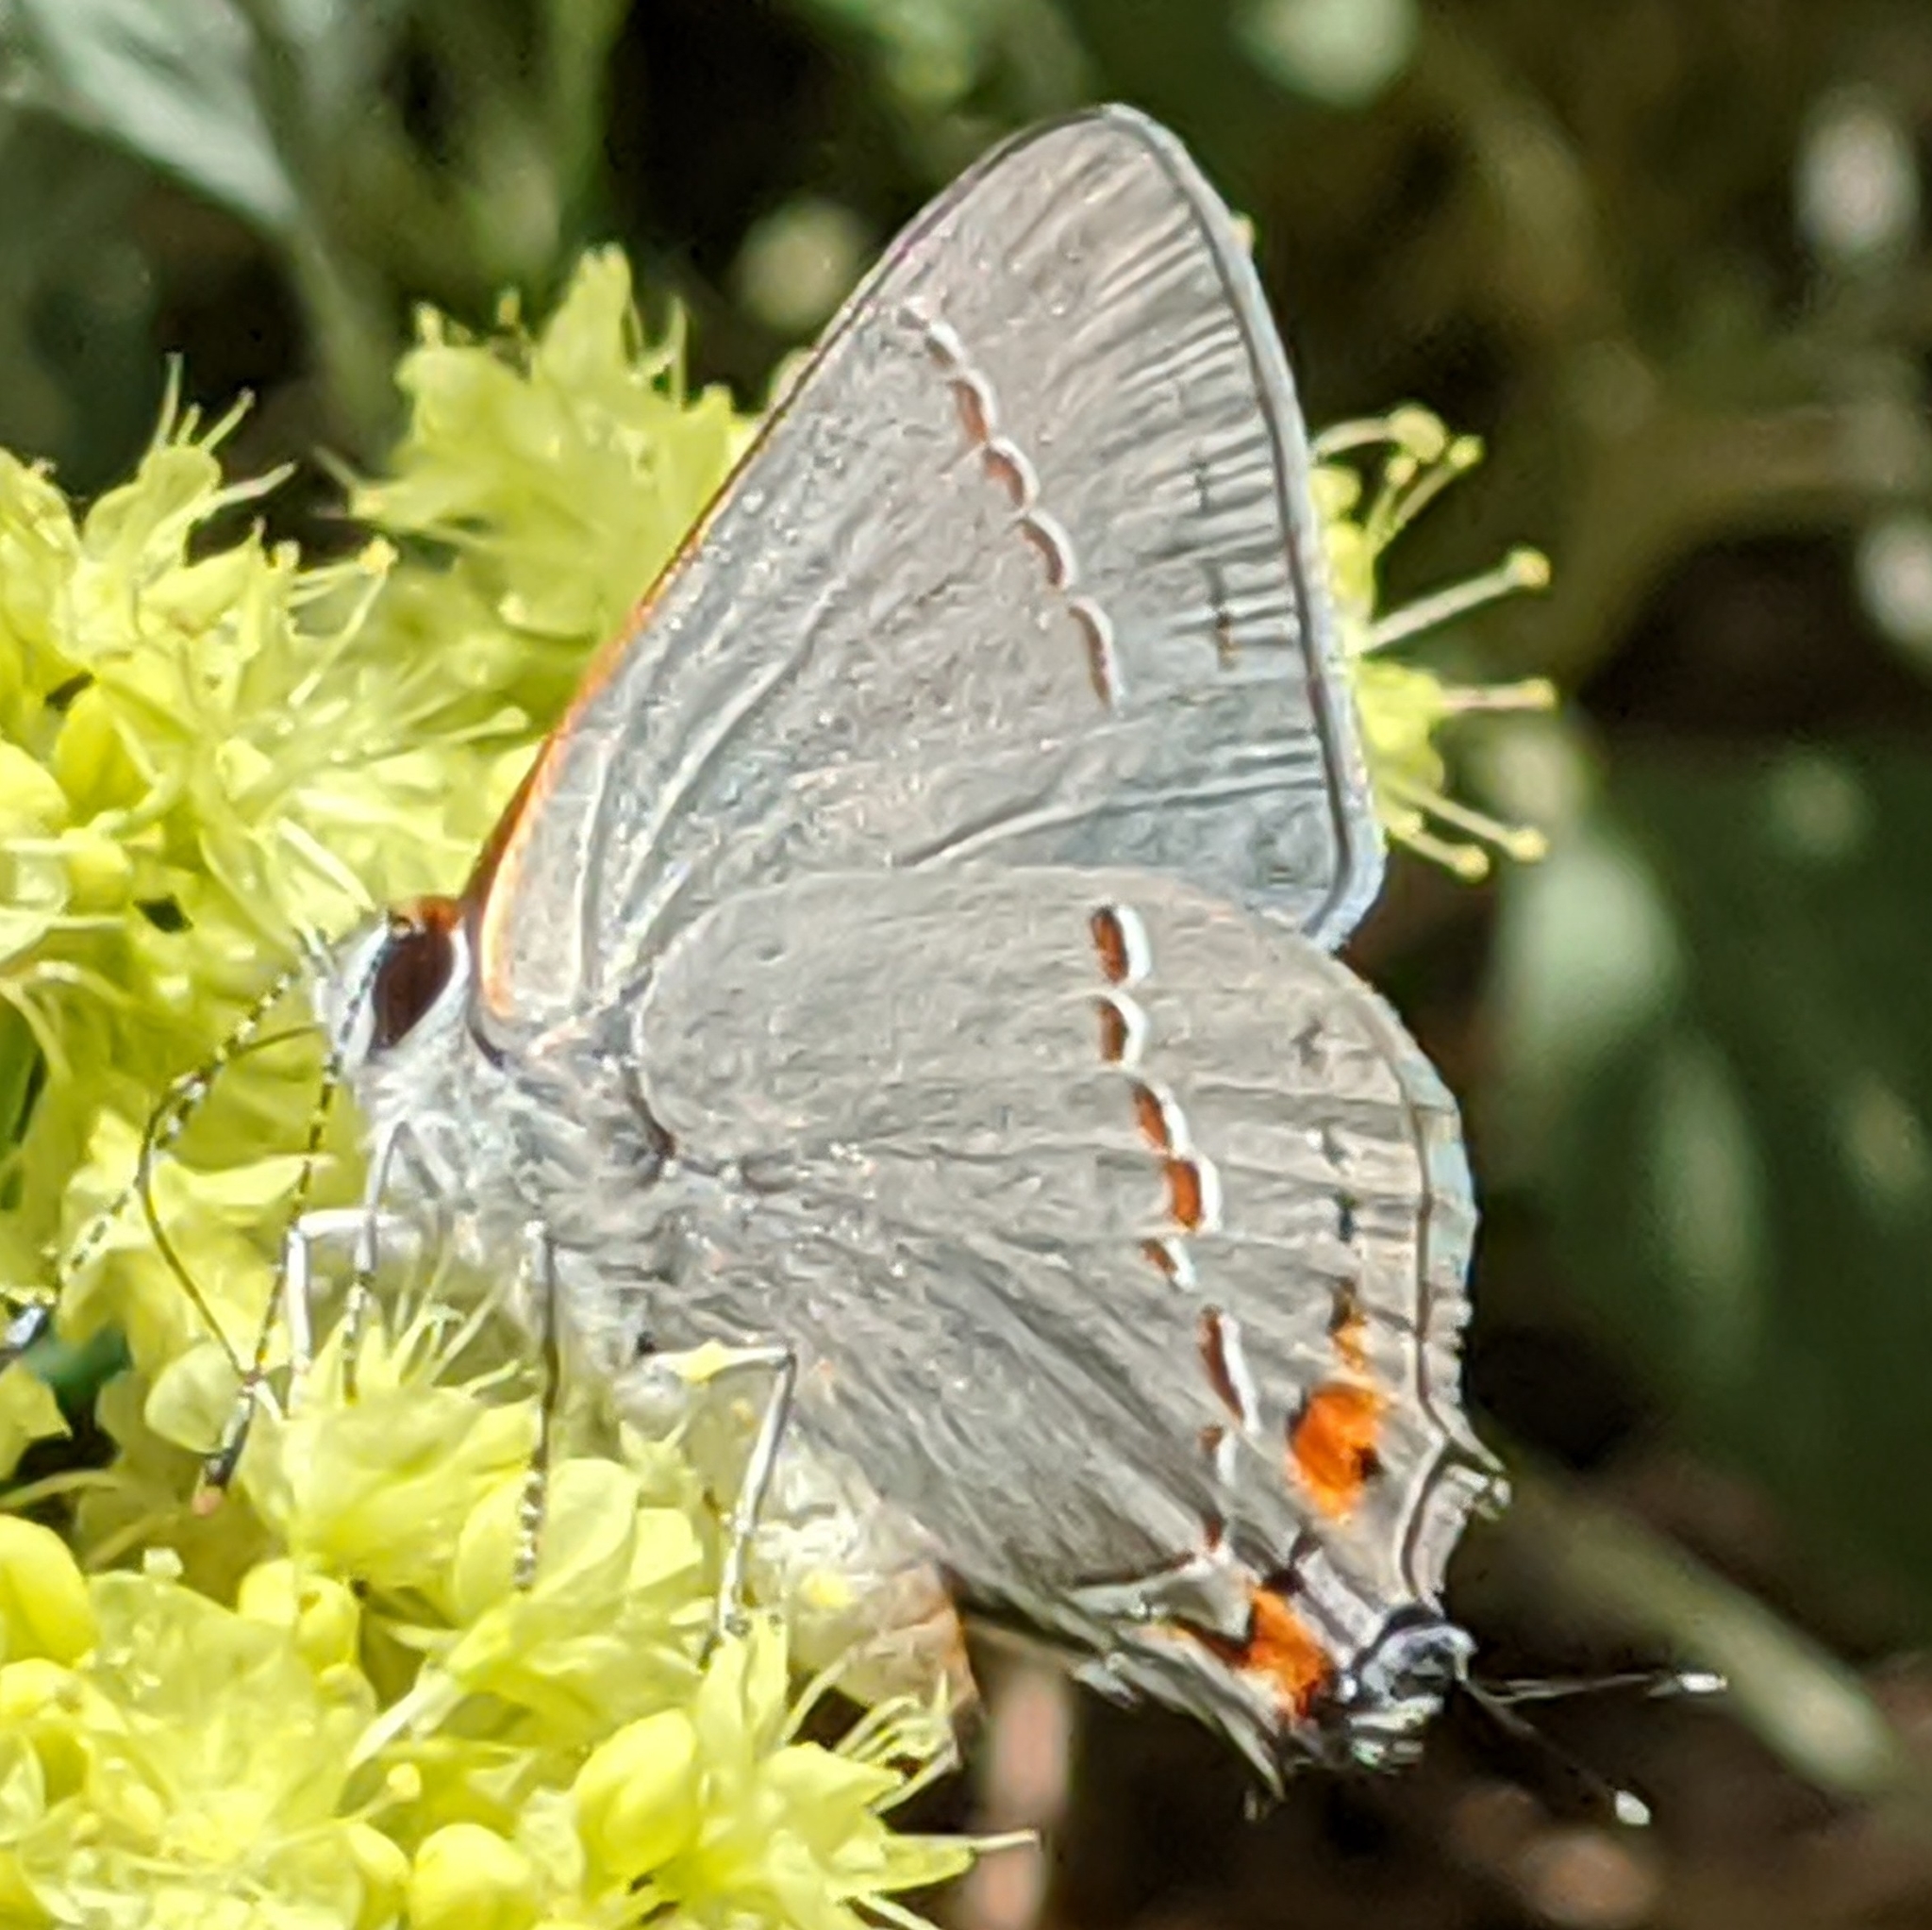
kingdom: Animalia
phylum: Arthropoda
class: Insecta
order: Lepidoptera
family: Lycaenidae
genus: Strymon
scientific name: Strymon melinus
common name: Gray hairstreak
